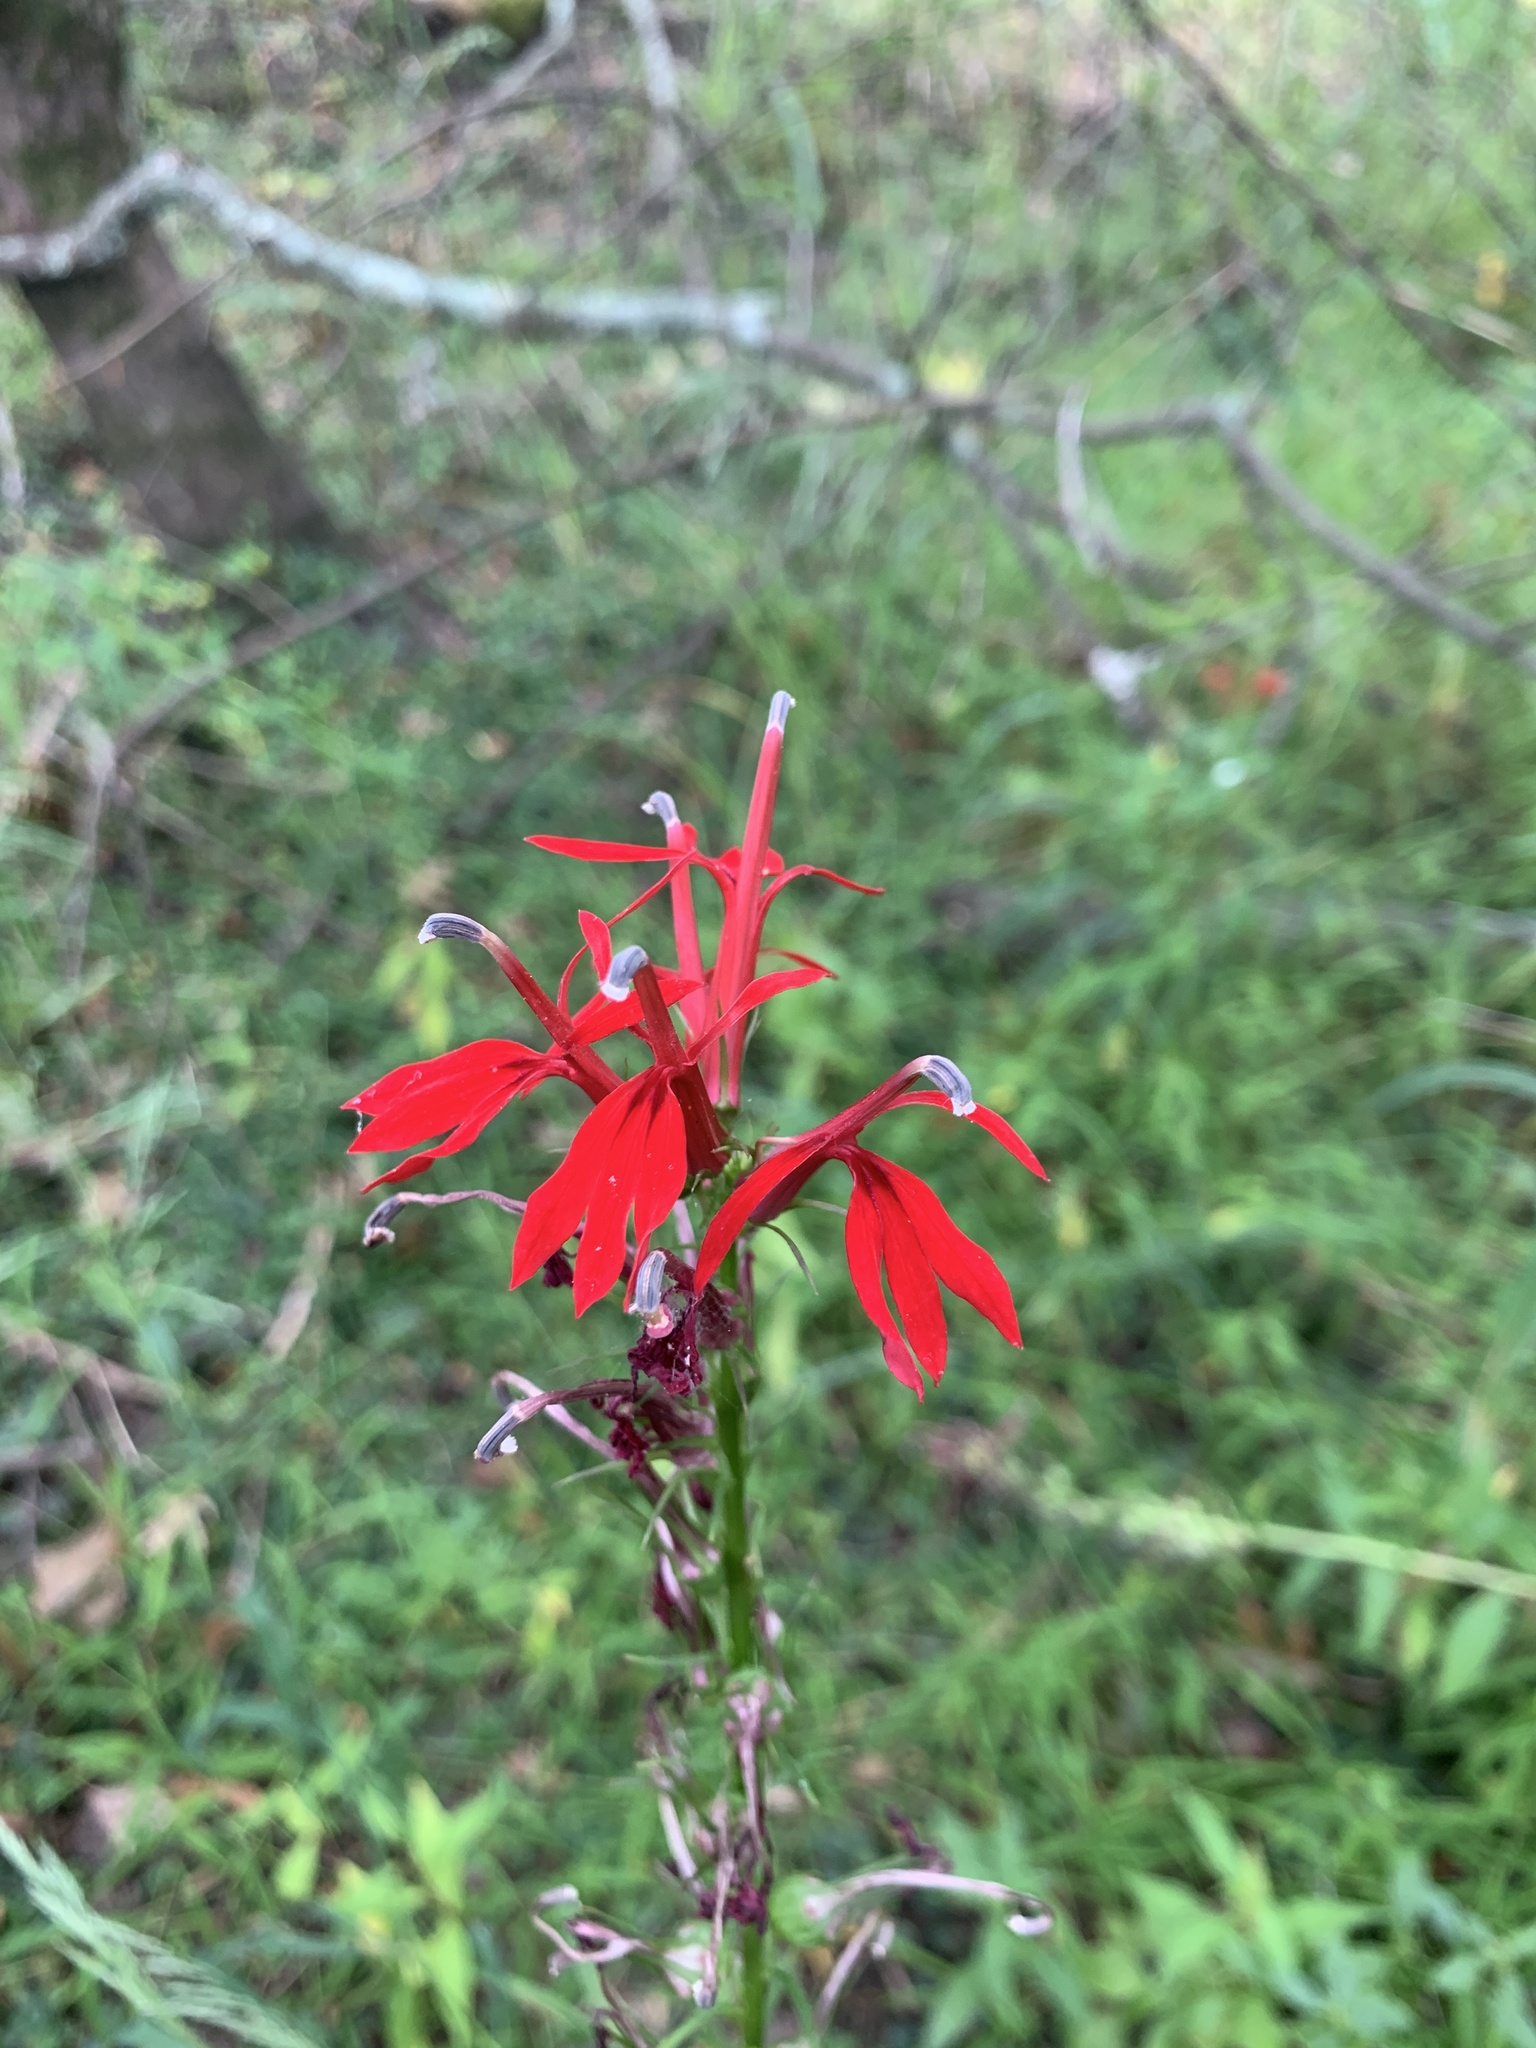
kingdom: Plantae
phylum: Tracheophyta
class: Magnoliopsida
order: Asterales
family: Campanulaceae
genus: Lobelia
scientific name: Lobelia cardinalis
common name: Cardinal flower
